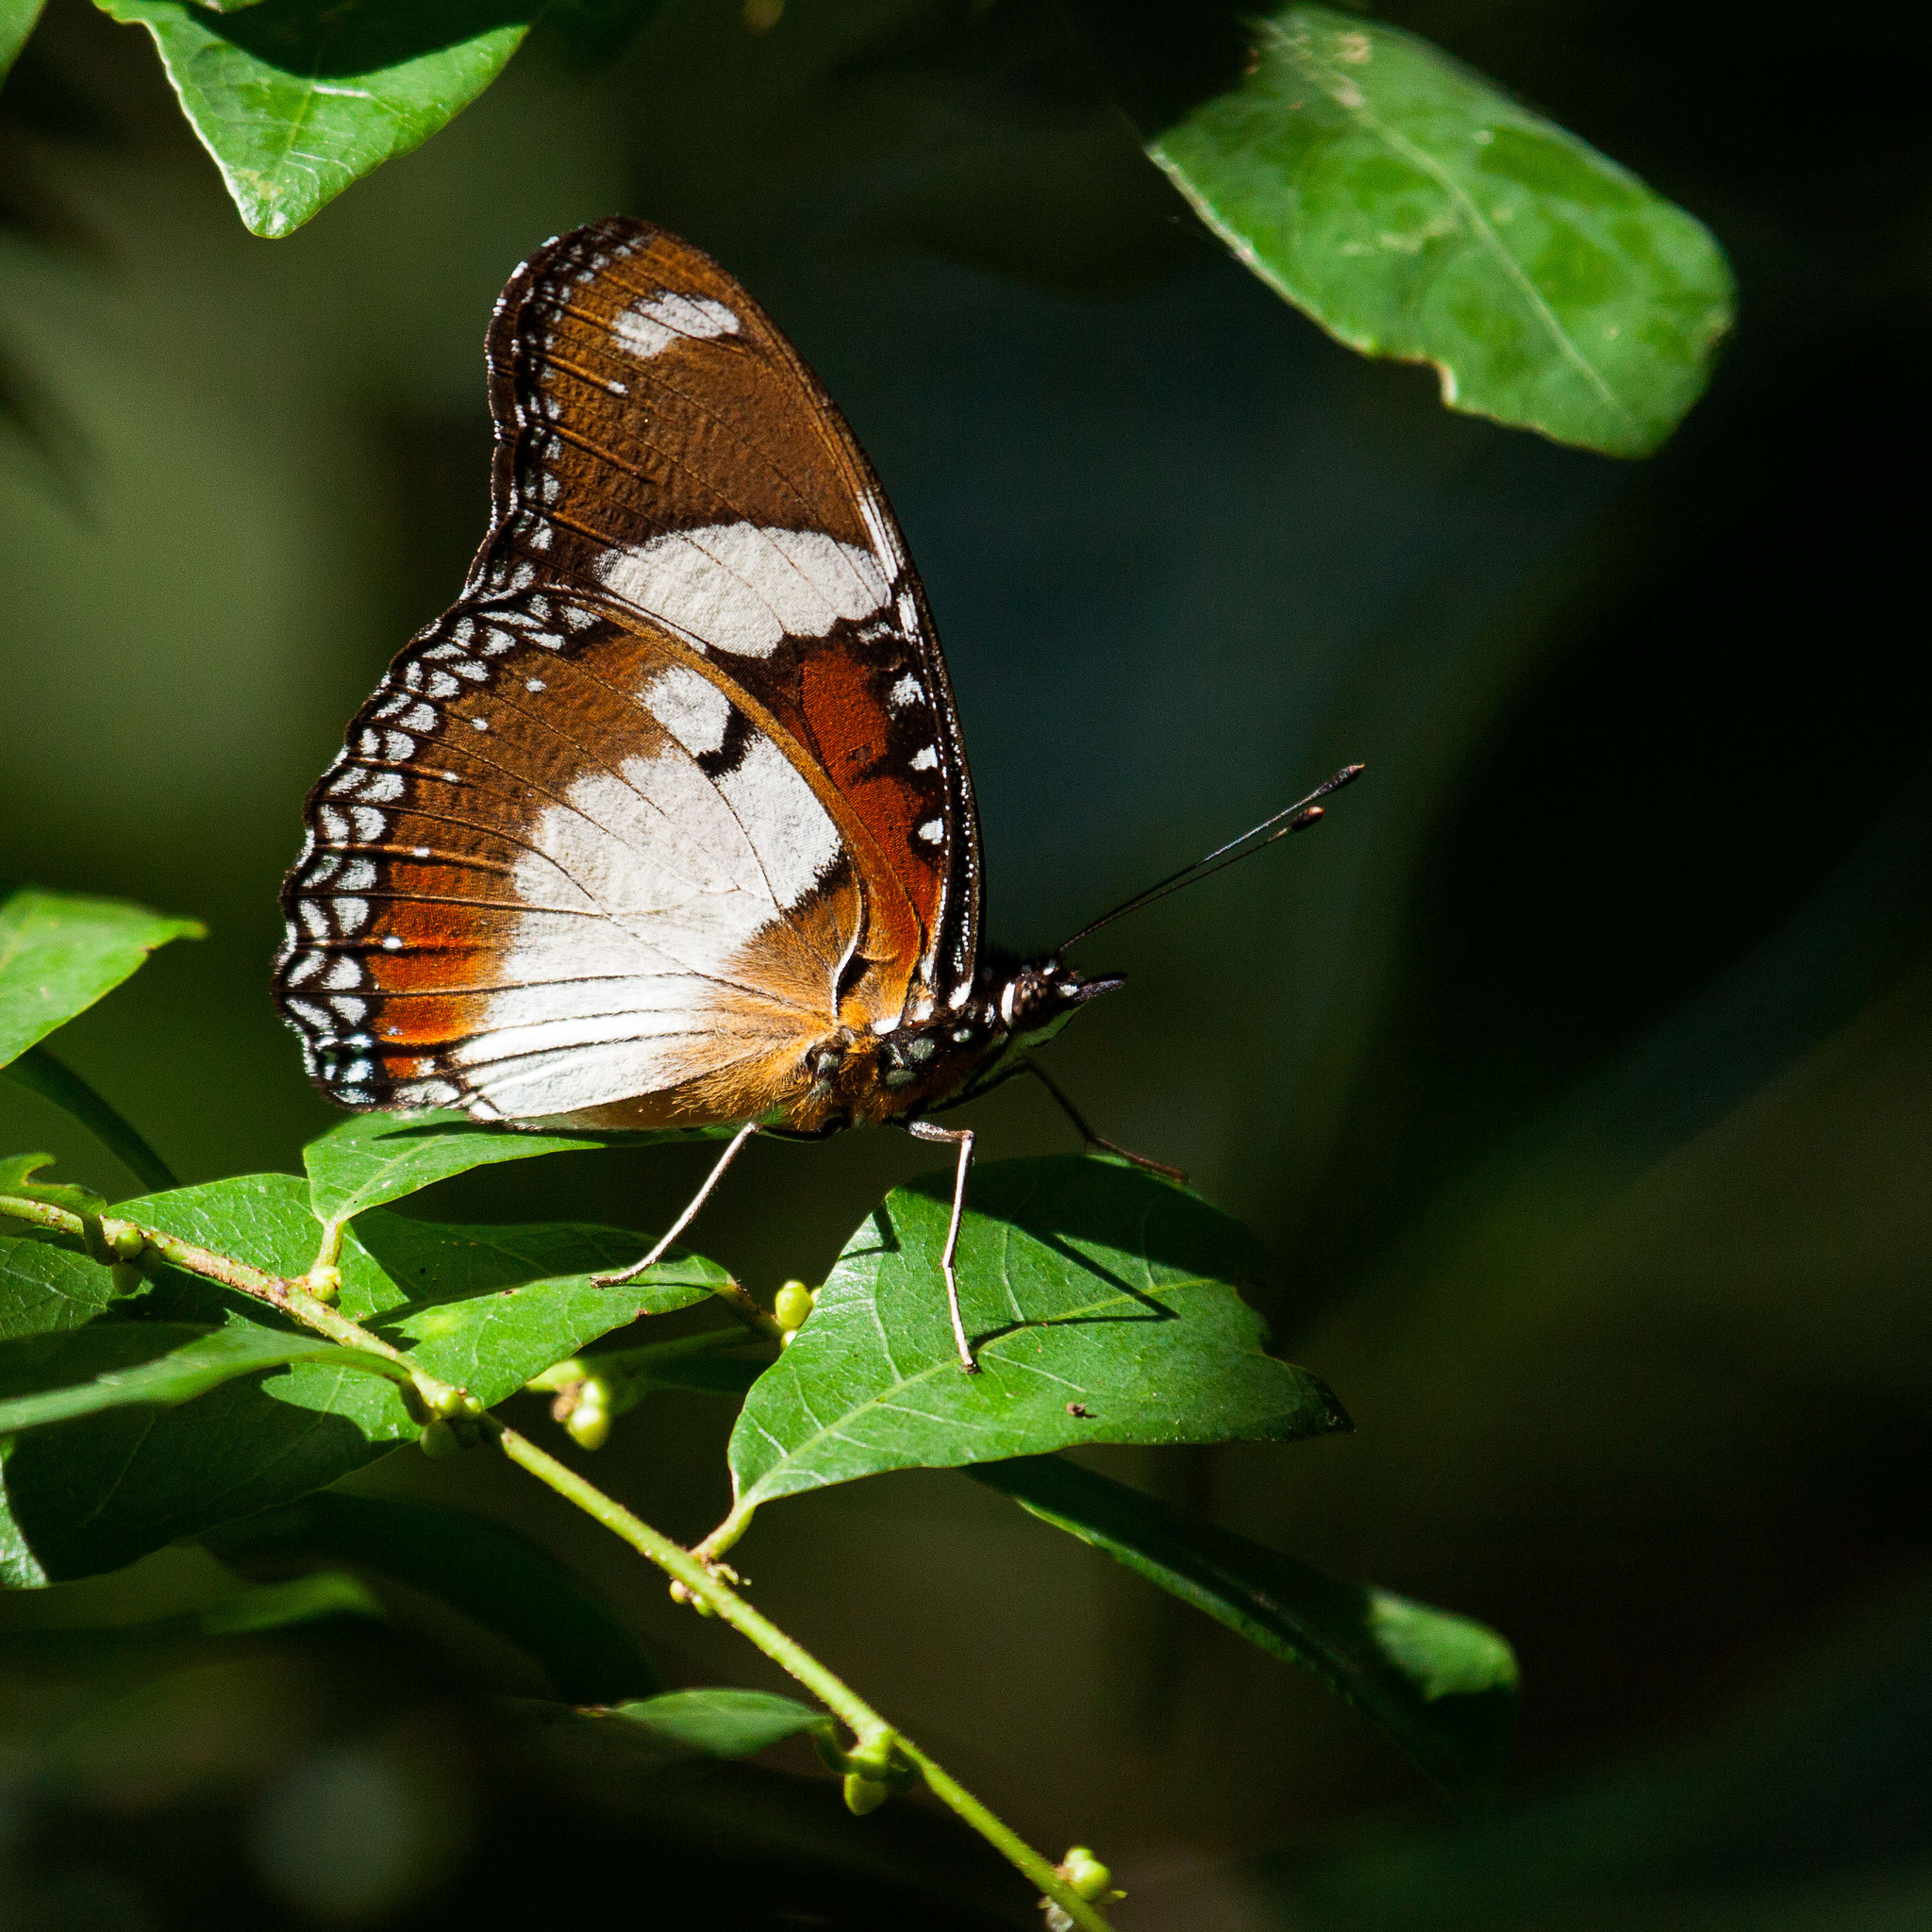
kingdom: Animalia
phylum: Arthropoda
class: Insecta
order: Lepidoptera
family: Nymphalidae
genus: Hypolimnas
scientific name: Hypolimnas misippus
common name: False plain tiger
